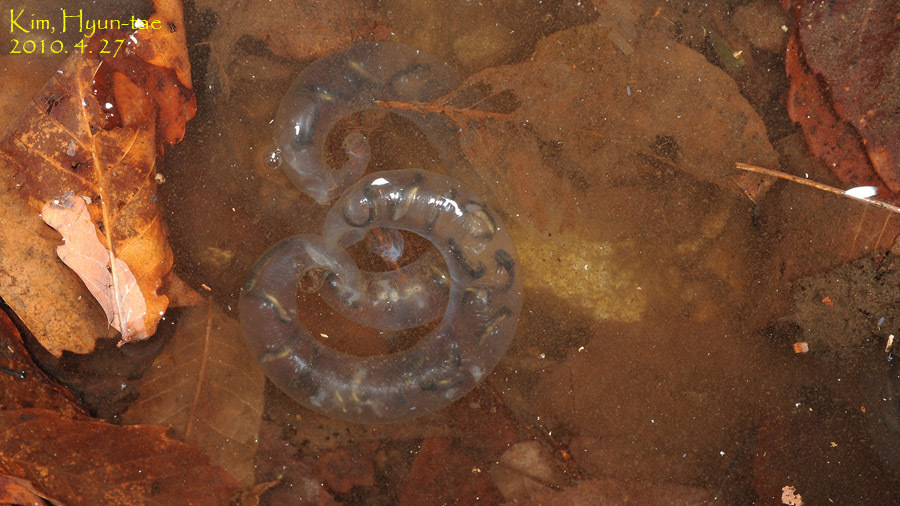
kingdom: Animalia
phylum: Chordata
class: Amphibia
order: Caudata
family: Hynobiidae
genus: Hynobius
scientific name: Hynobius leechii
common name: Gensan salamander
